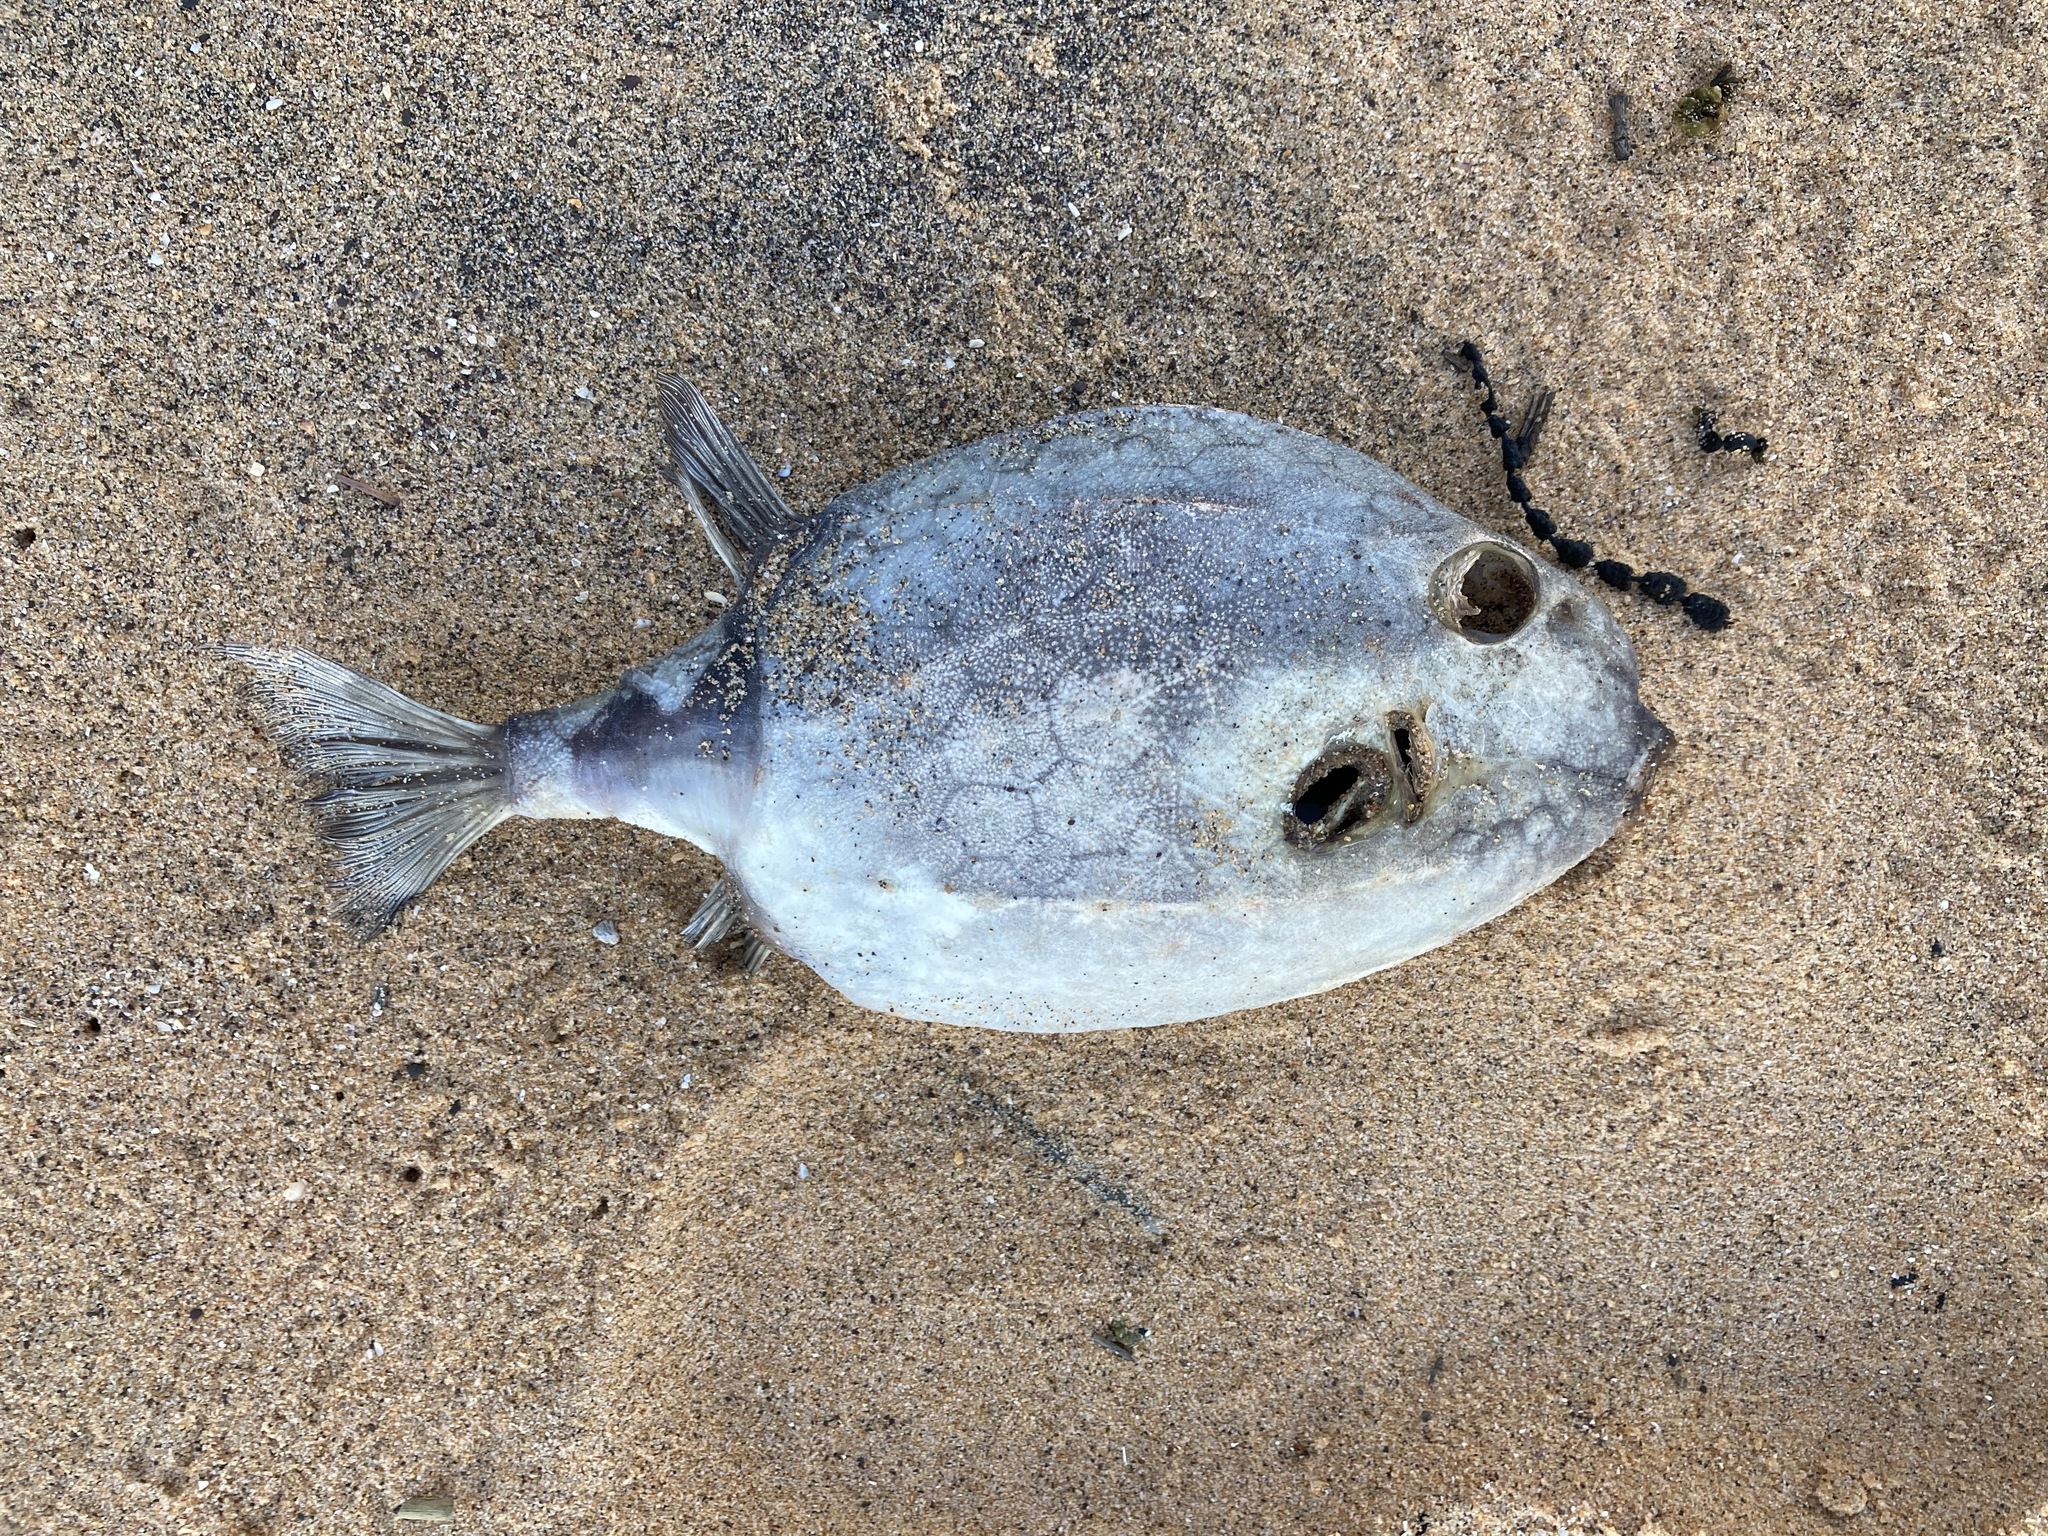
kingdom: Animalia
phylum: Chordata
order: Tetraodontiformes
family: Aracanidae
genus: Anoplocapros
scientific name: Anoplocapros inermis
